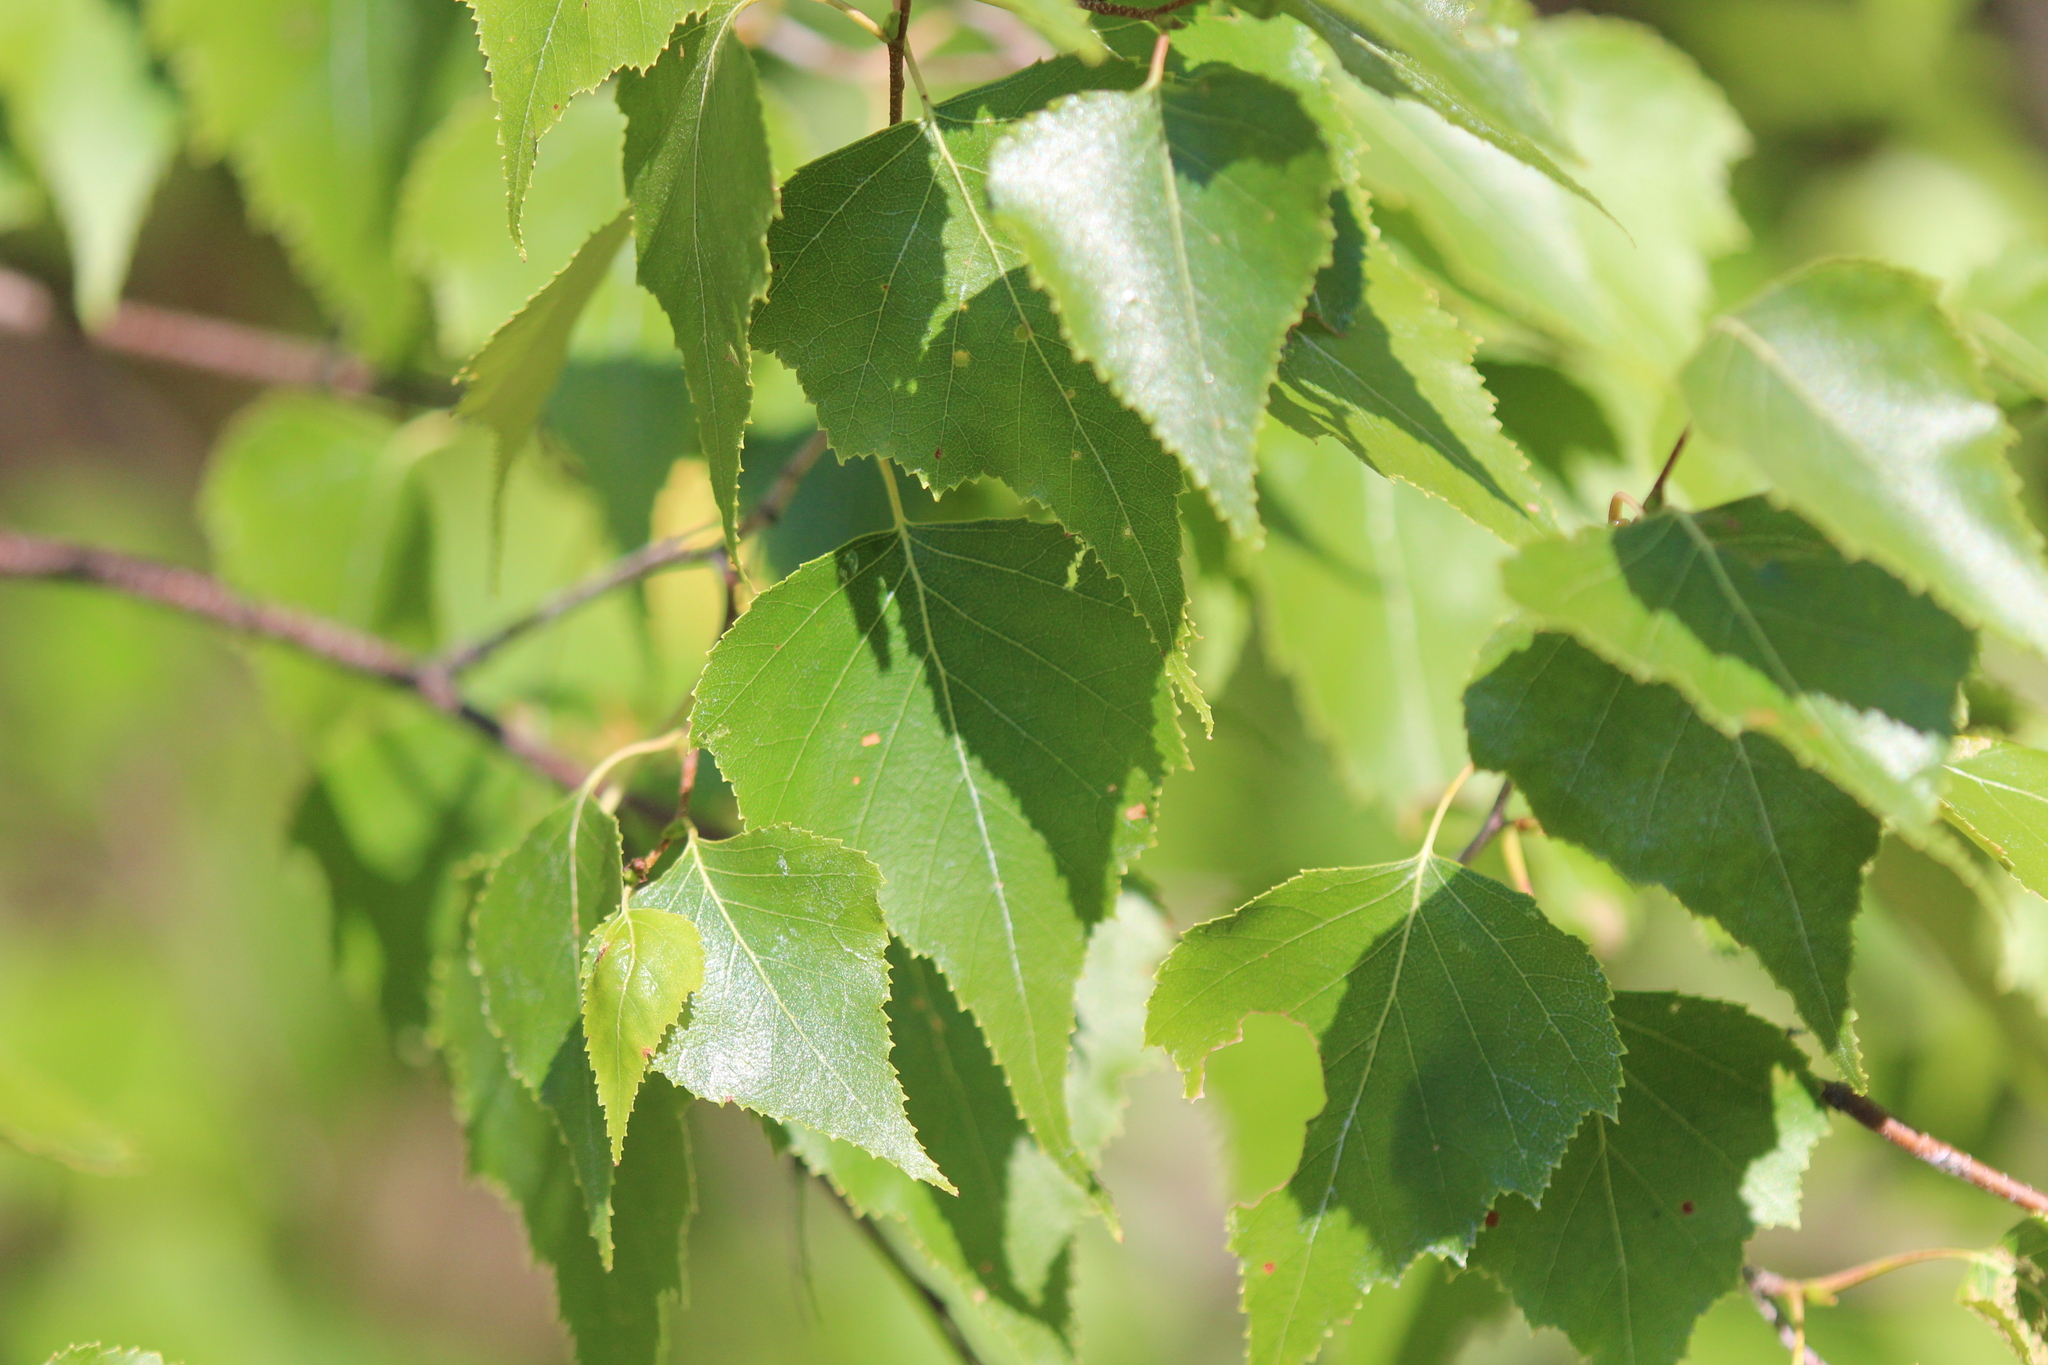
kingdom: Plantae
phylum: Tracheophyta
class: Magnoliopsida
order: Fagales
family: Betulaceae
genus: Betula
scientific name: Betula populifolia
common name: Fire birch
